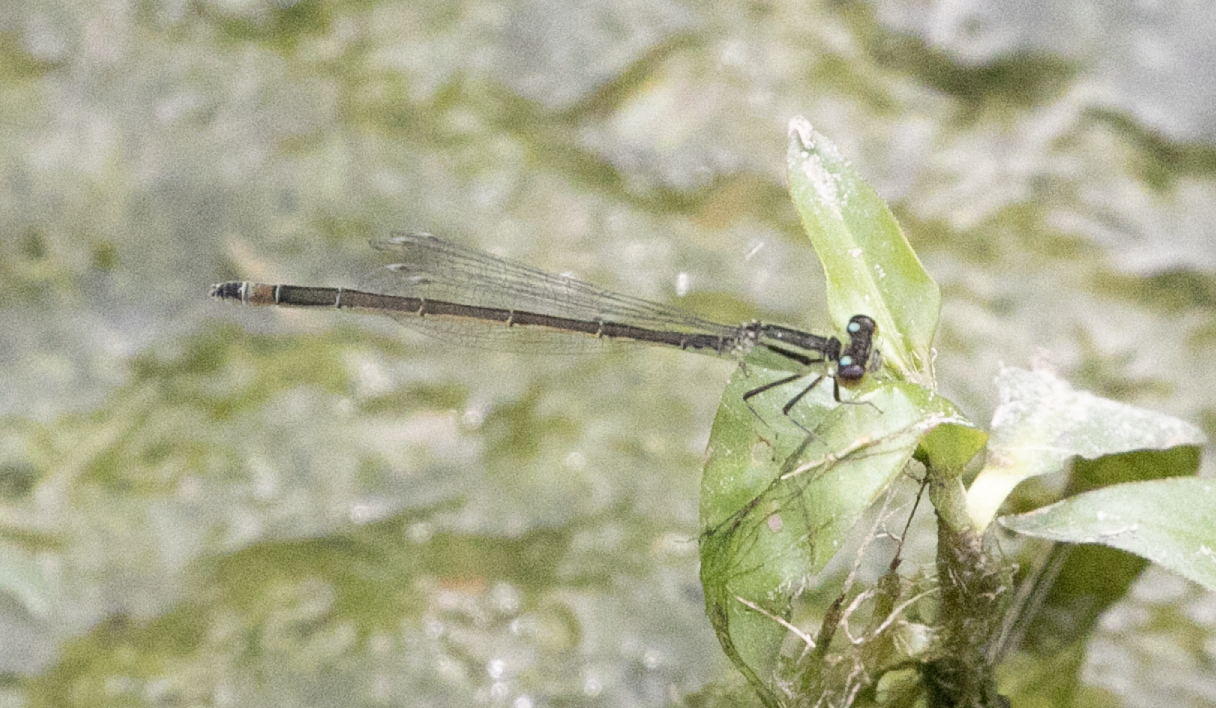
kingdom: Animalia
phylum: Arthropoda
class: Insecta
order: Odonata
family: Coenagrionidae
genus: Ischnura
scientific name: Ischnura elegans
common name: Blue-tailed damselfly
